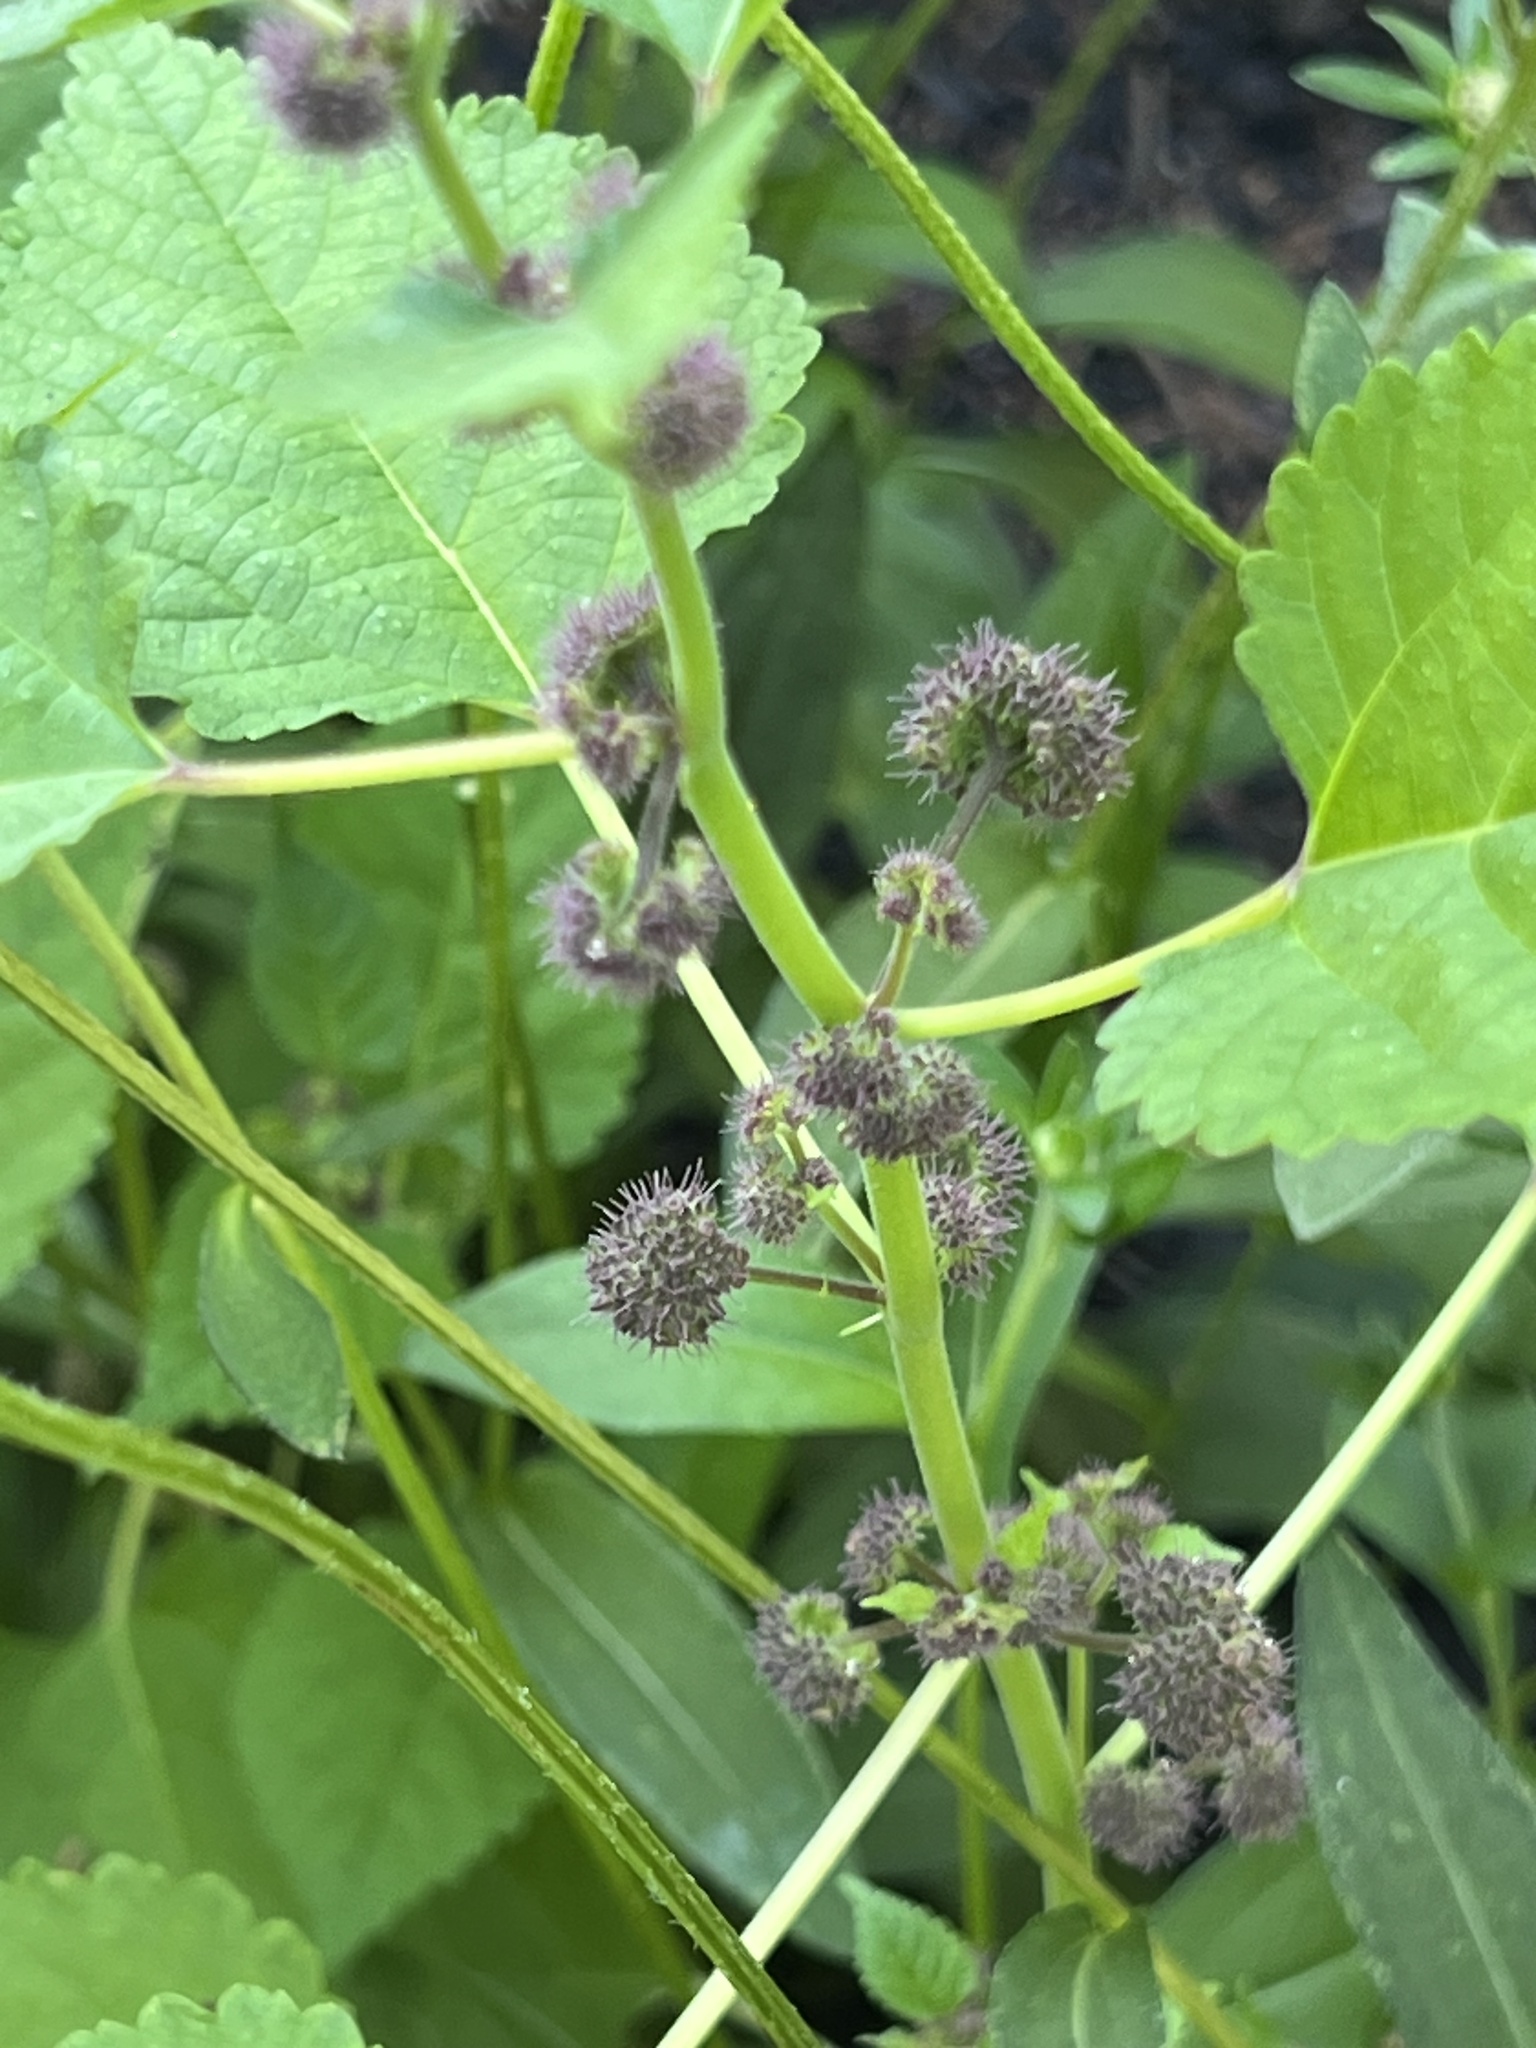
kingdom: Plantae
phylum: Tracheophyta
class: Magnoliopsida
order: Rosales
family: Moraceae
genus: Fatoua
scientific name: Fatoua villosa
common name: Hairy crabweed
